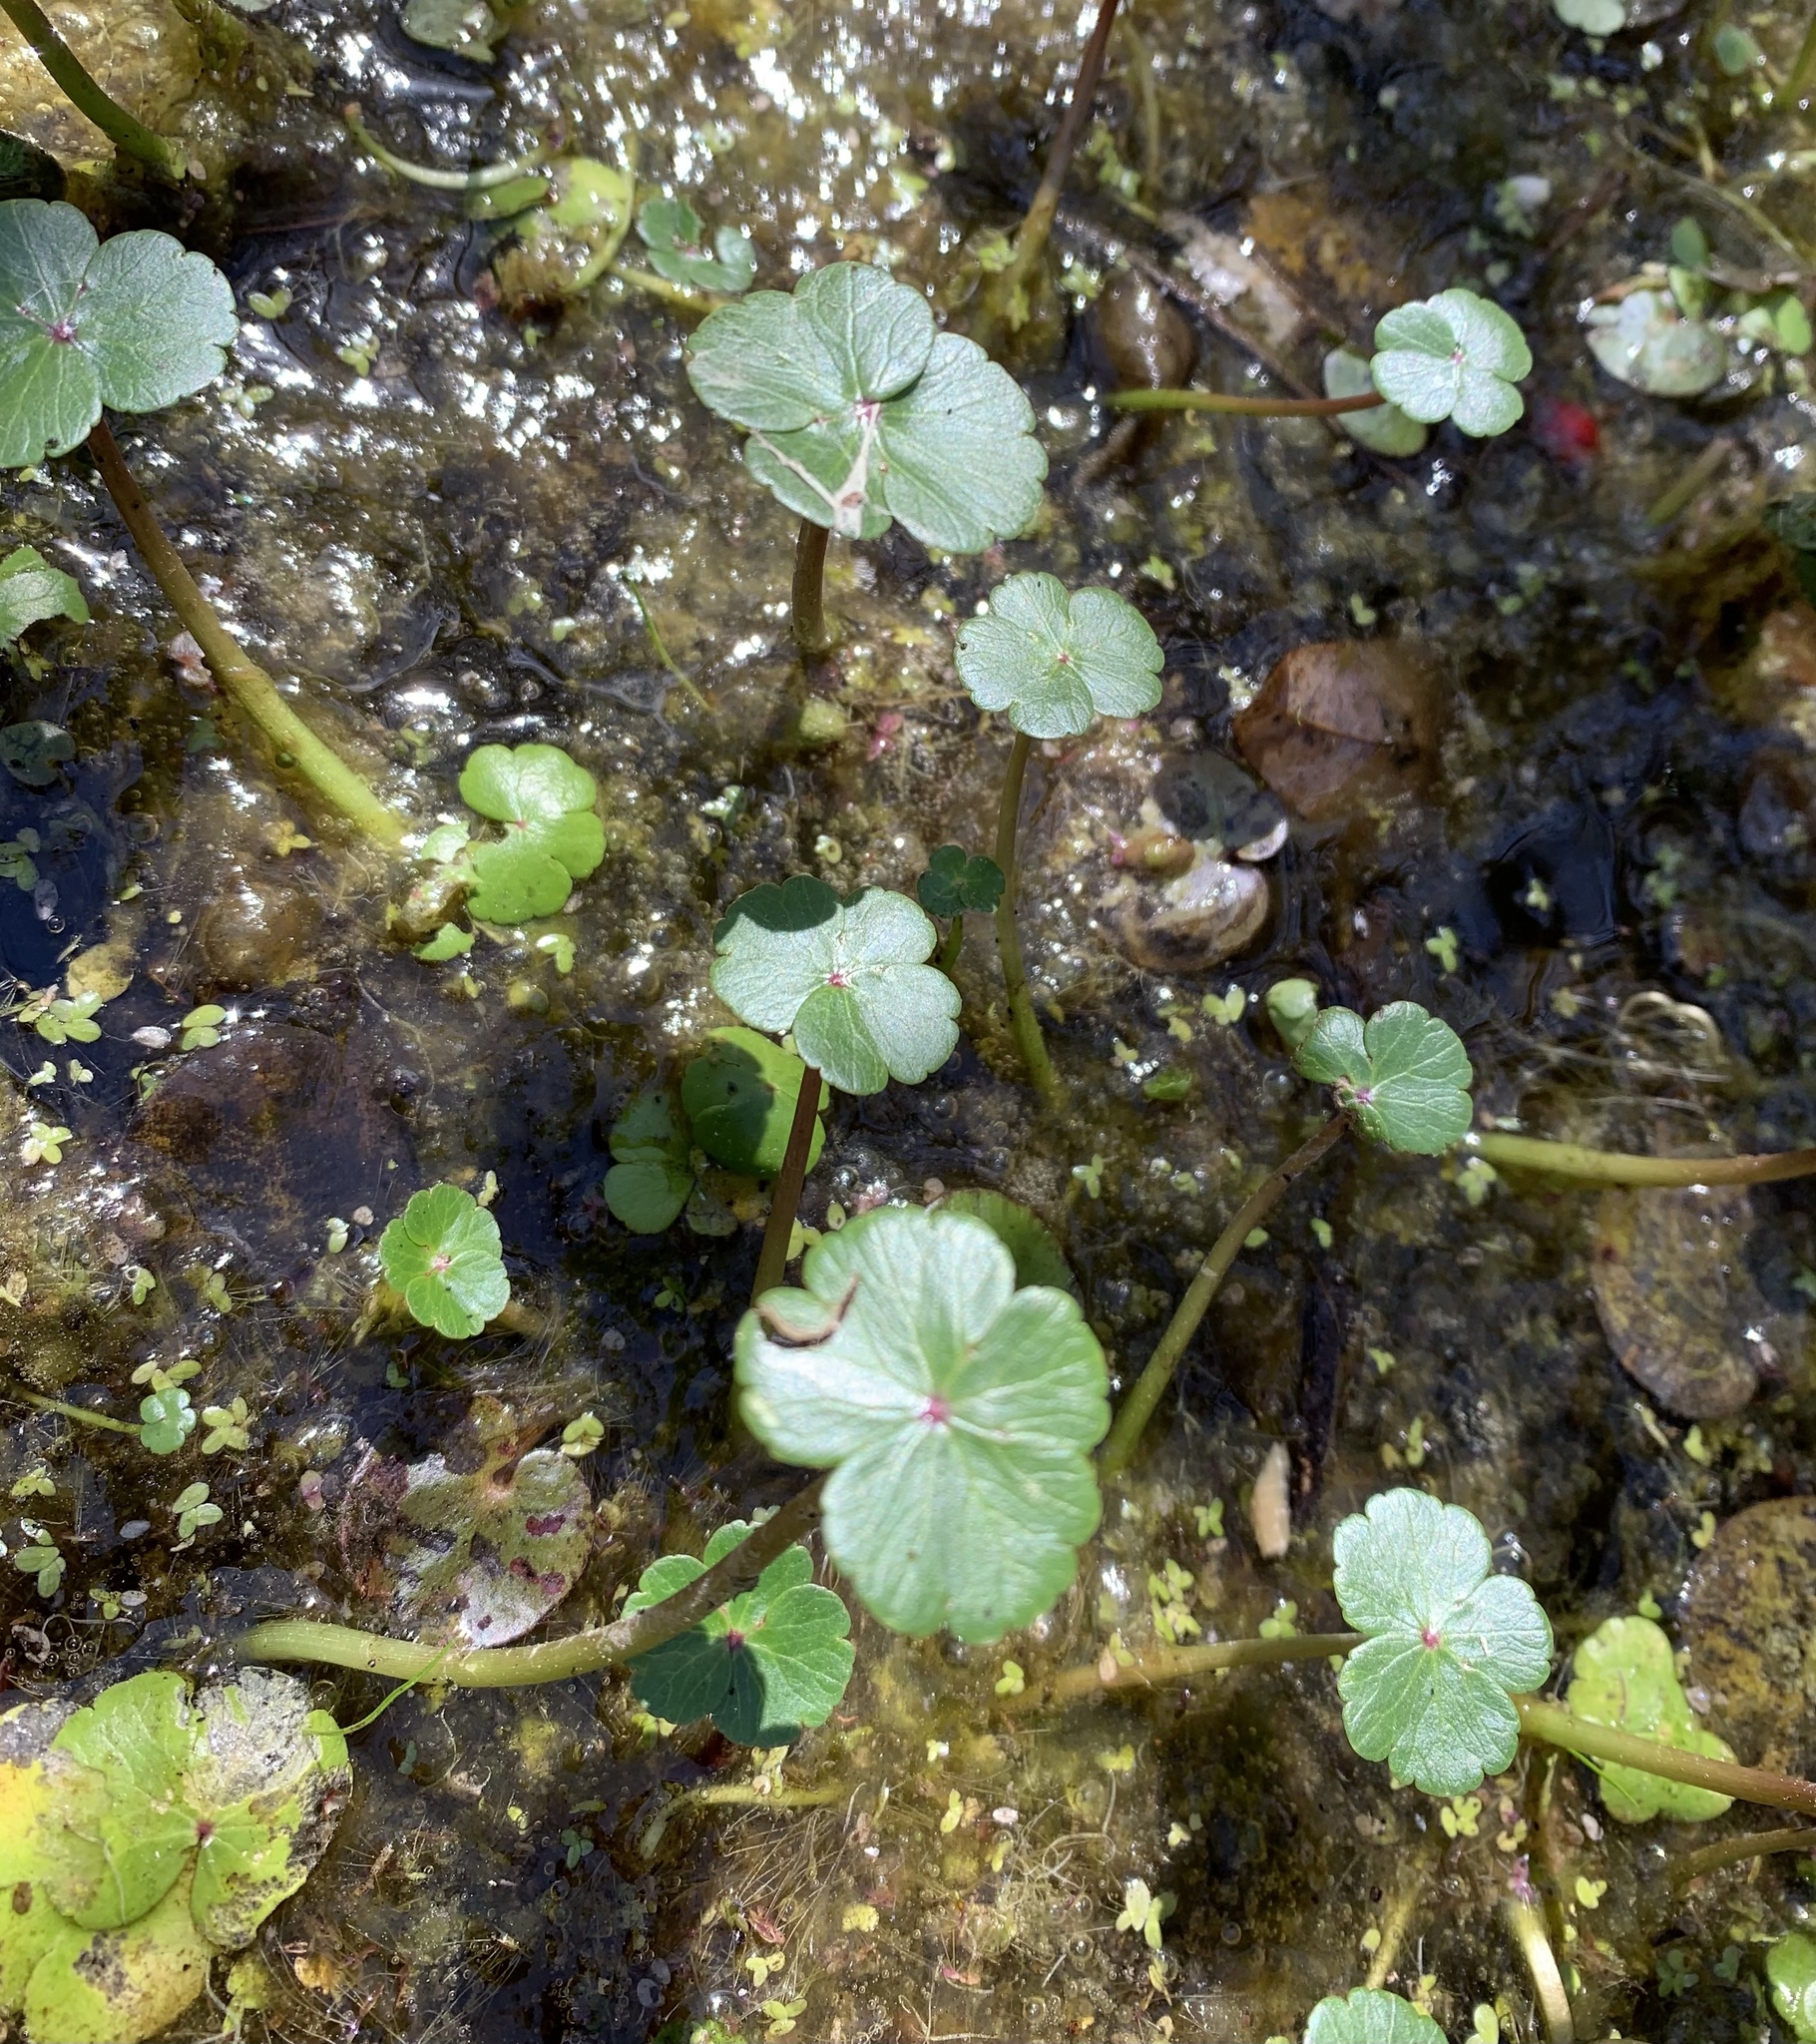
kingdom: Plantae
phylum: Tracheophyta
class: Magnoliopsida
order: Apiales
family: Araliaceae
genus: Hydrocotyle
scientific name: Hydrocotyle ranunculoides
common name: Floating pennywort
